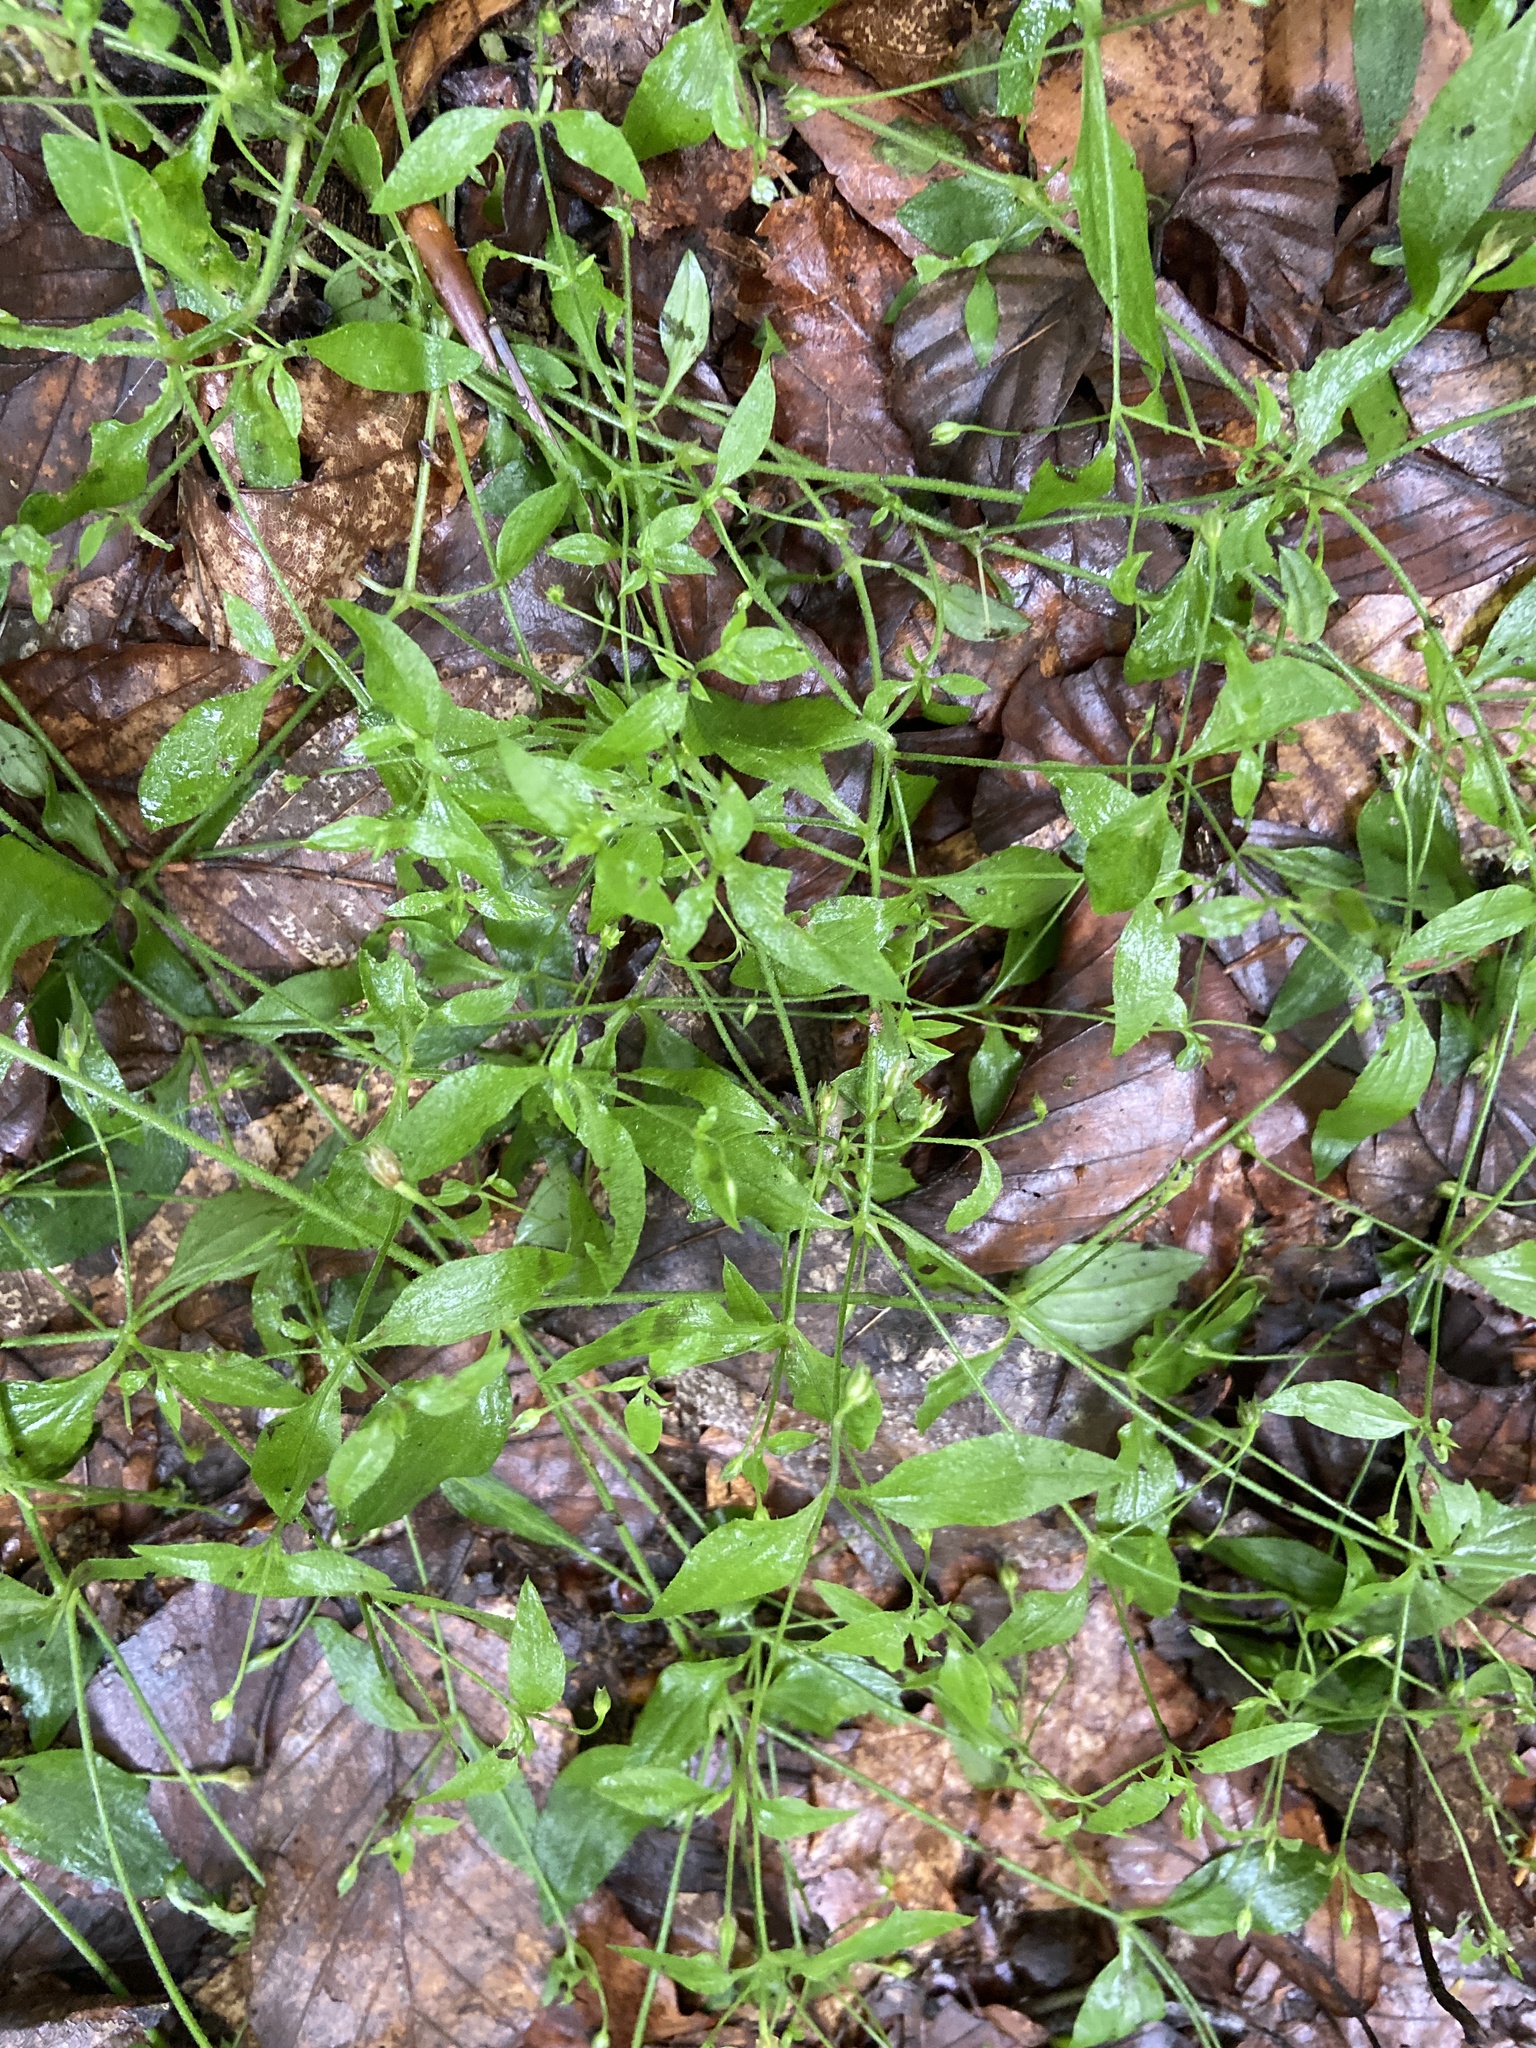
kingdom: Plantae
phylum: Tracheophyta
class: Magnoliopsida
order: Caryophyllales
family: Caryophyllaceae
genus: Moehringia
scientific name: Moehringia trinervia
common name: Three-nerved sandwort
